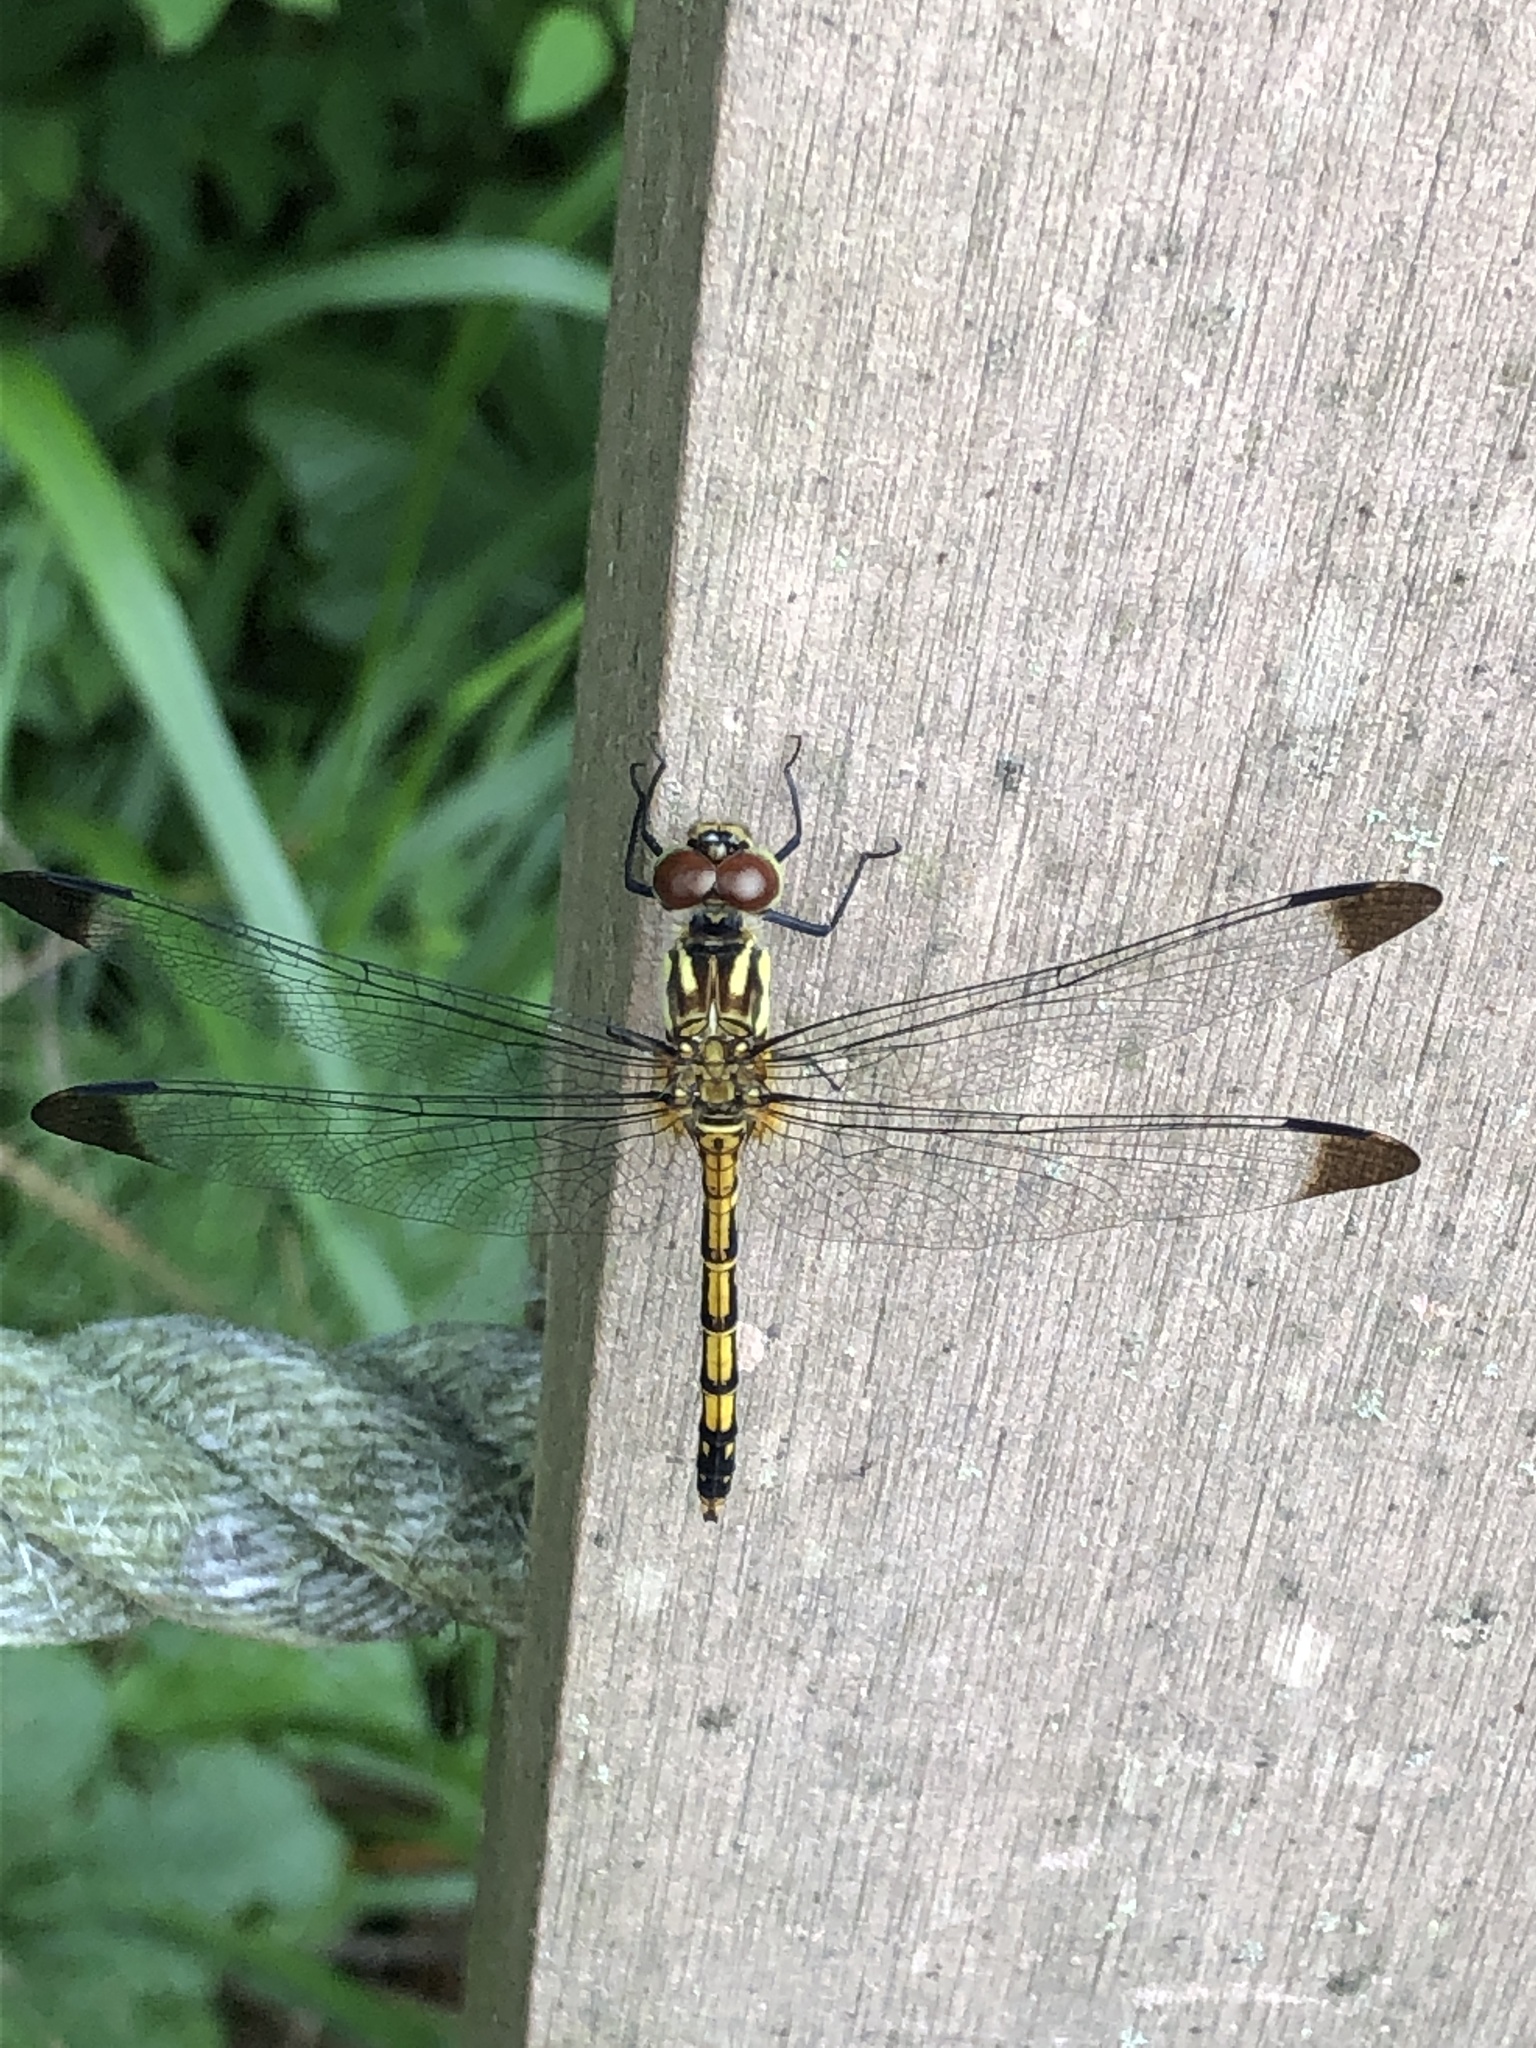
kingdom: Animalia
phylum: Arthropoda
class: Insecta
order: Odonata
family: Libellulidae
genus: Sympetrum
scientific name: Sympetrum infuscatum
